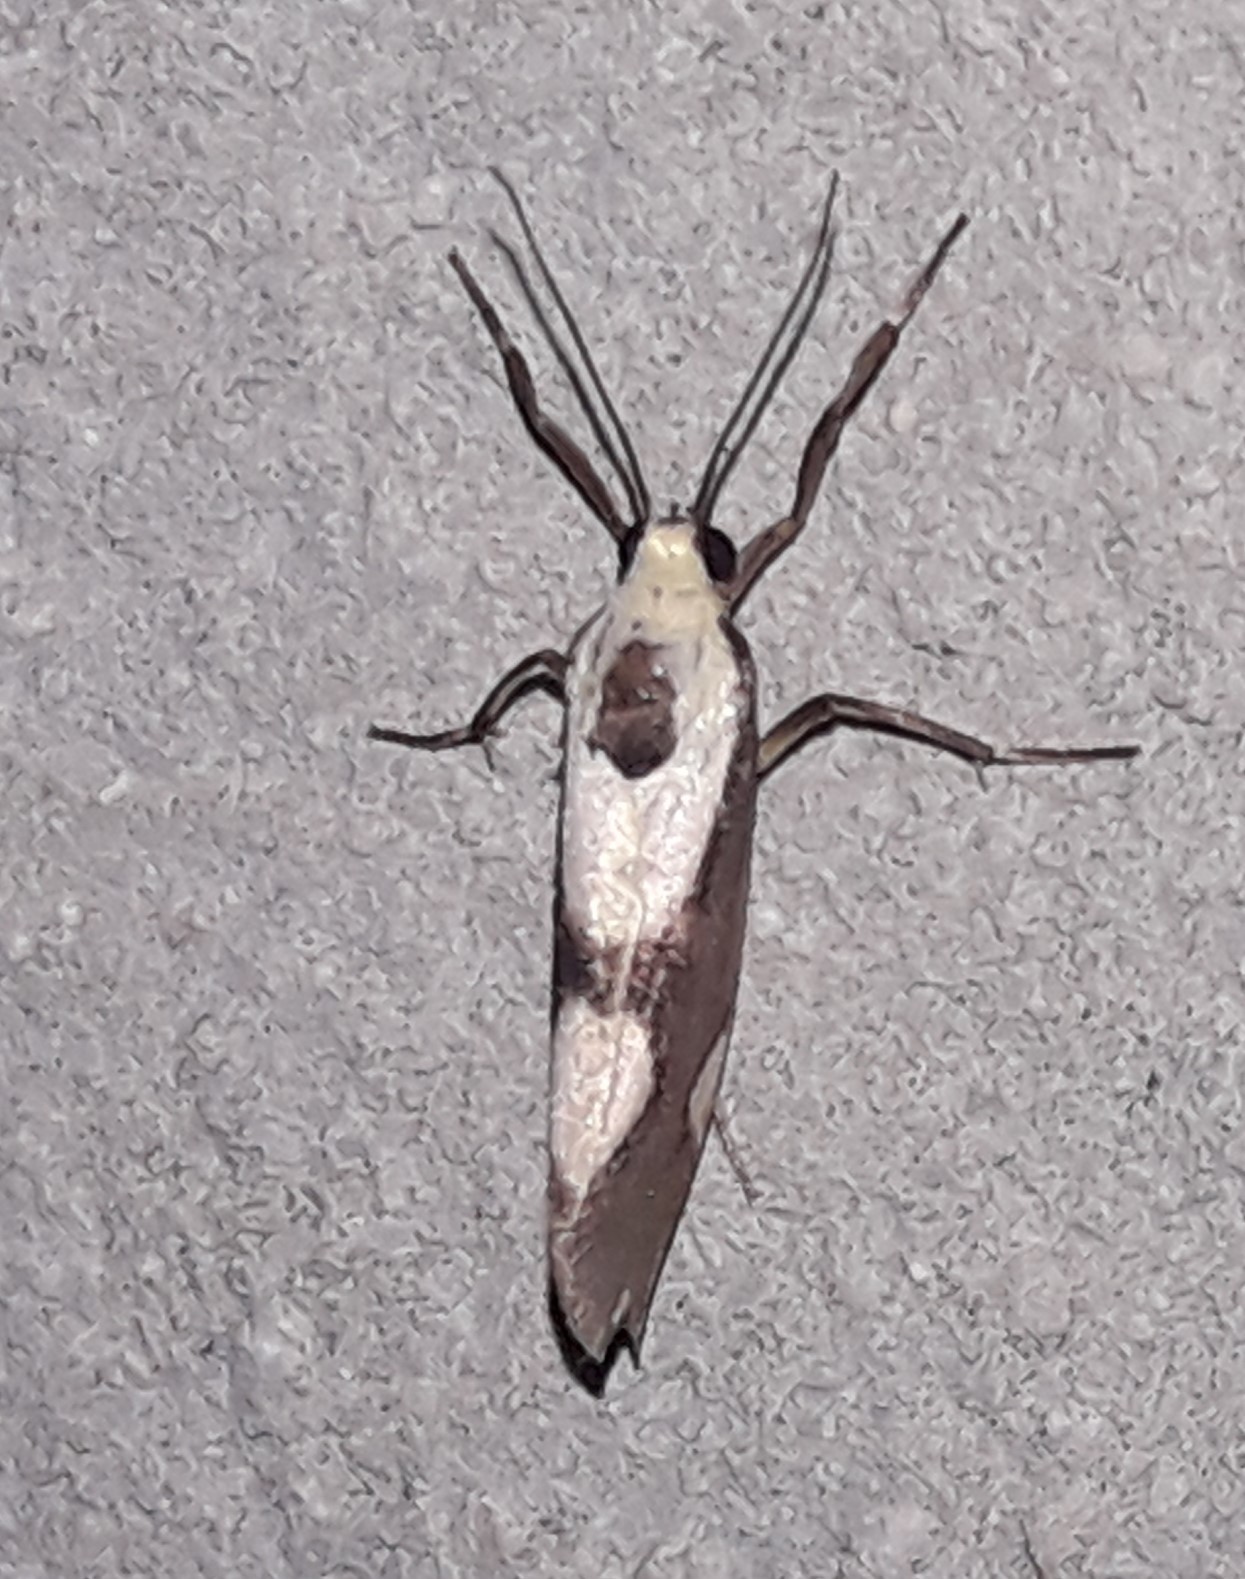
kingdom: Animalia
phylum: Arthropoda
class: Insecta
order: Lepidoptera
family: Erebidae
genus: Cisthene
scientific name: Cisthene polyzona
